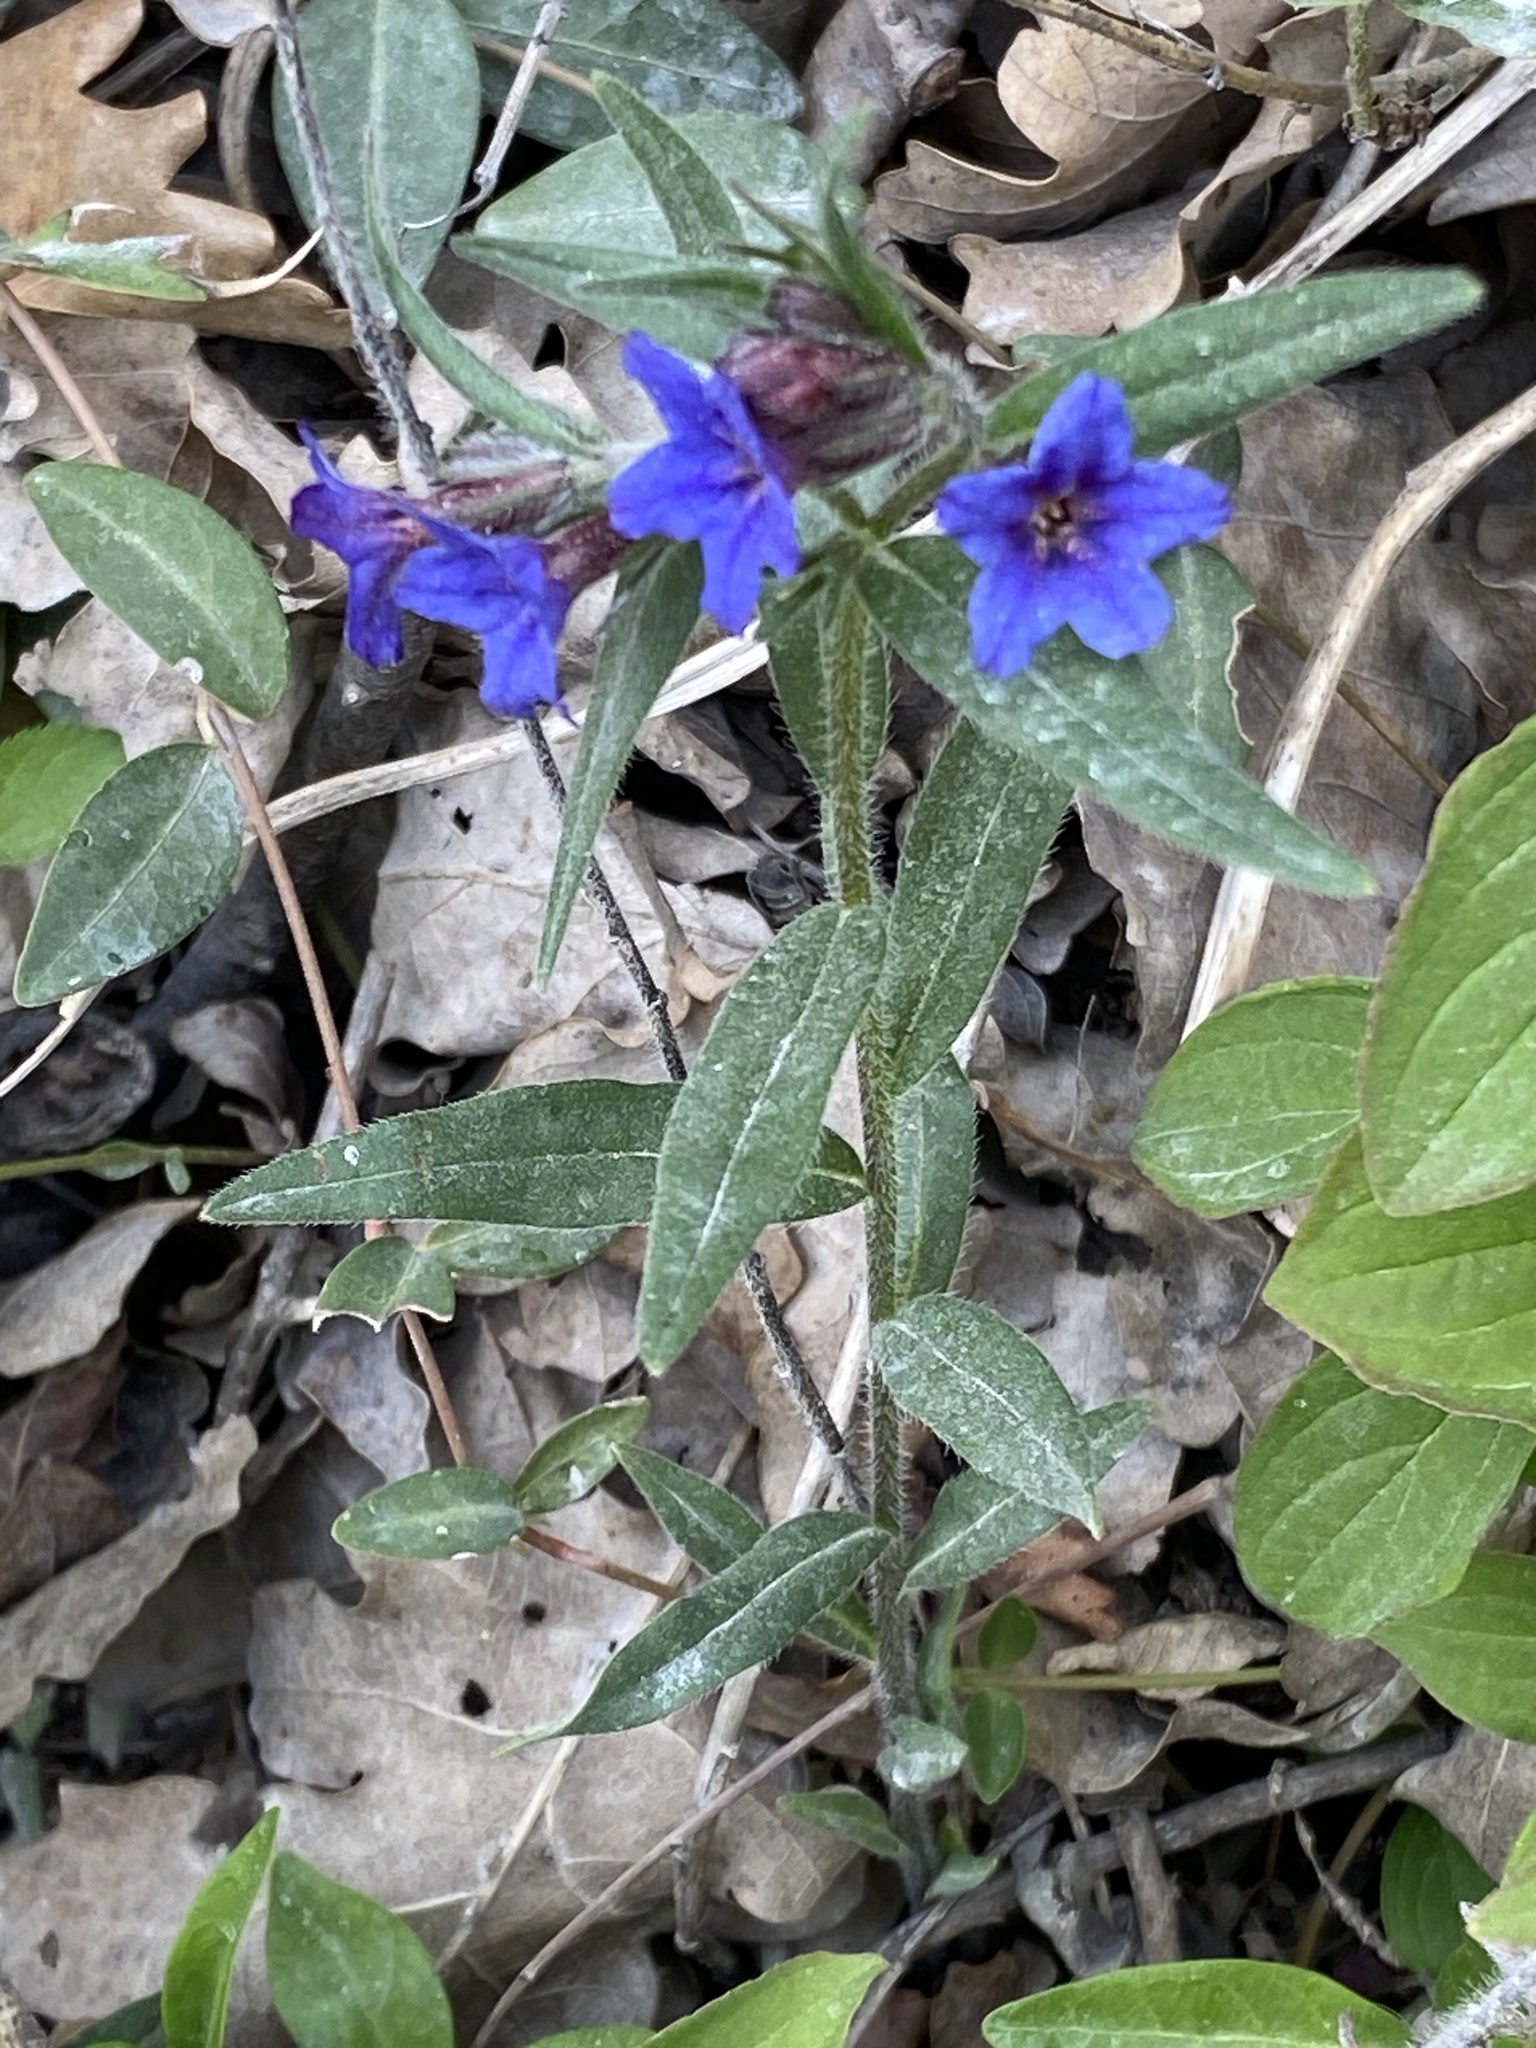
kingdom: Plantae
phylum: Tracheophyta
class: Magnoliopsida
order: Boraginales
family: Boraginaceae
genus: Aegonychon
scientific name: Aegonychon purpurocaeruleum
